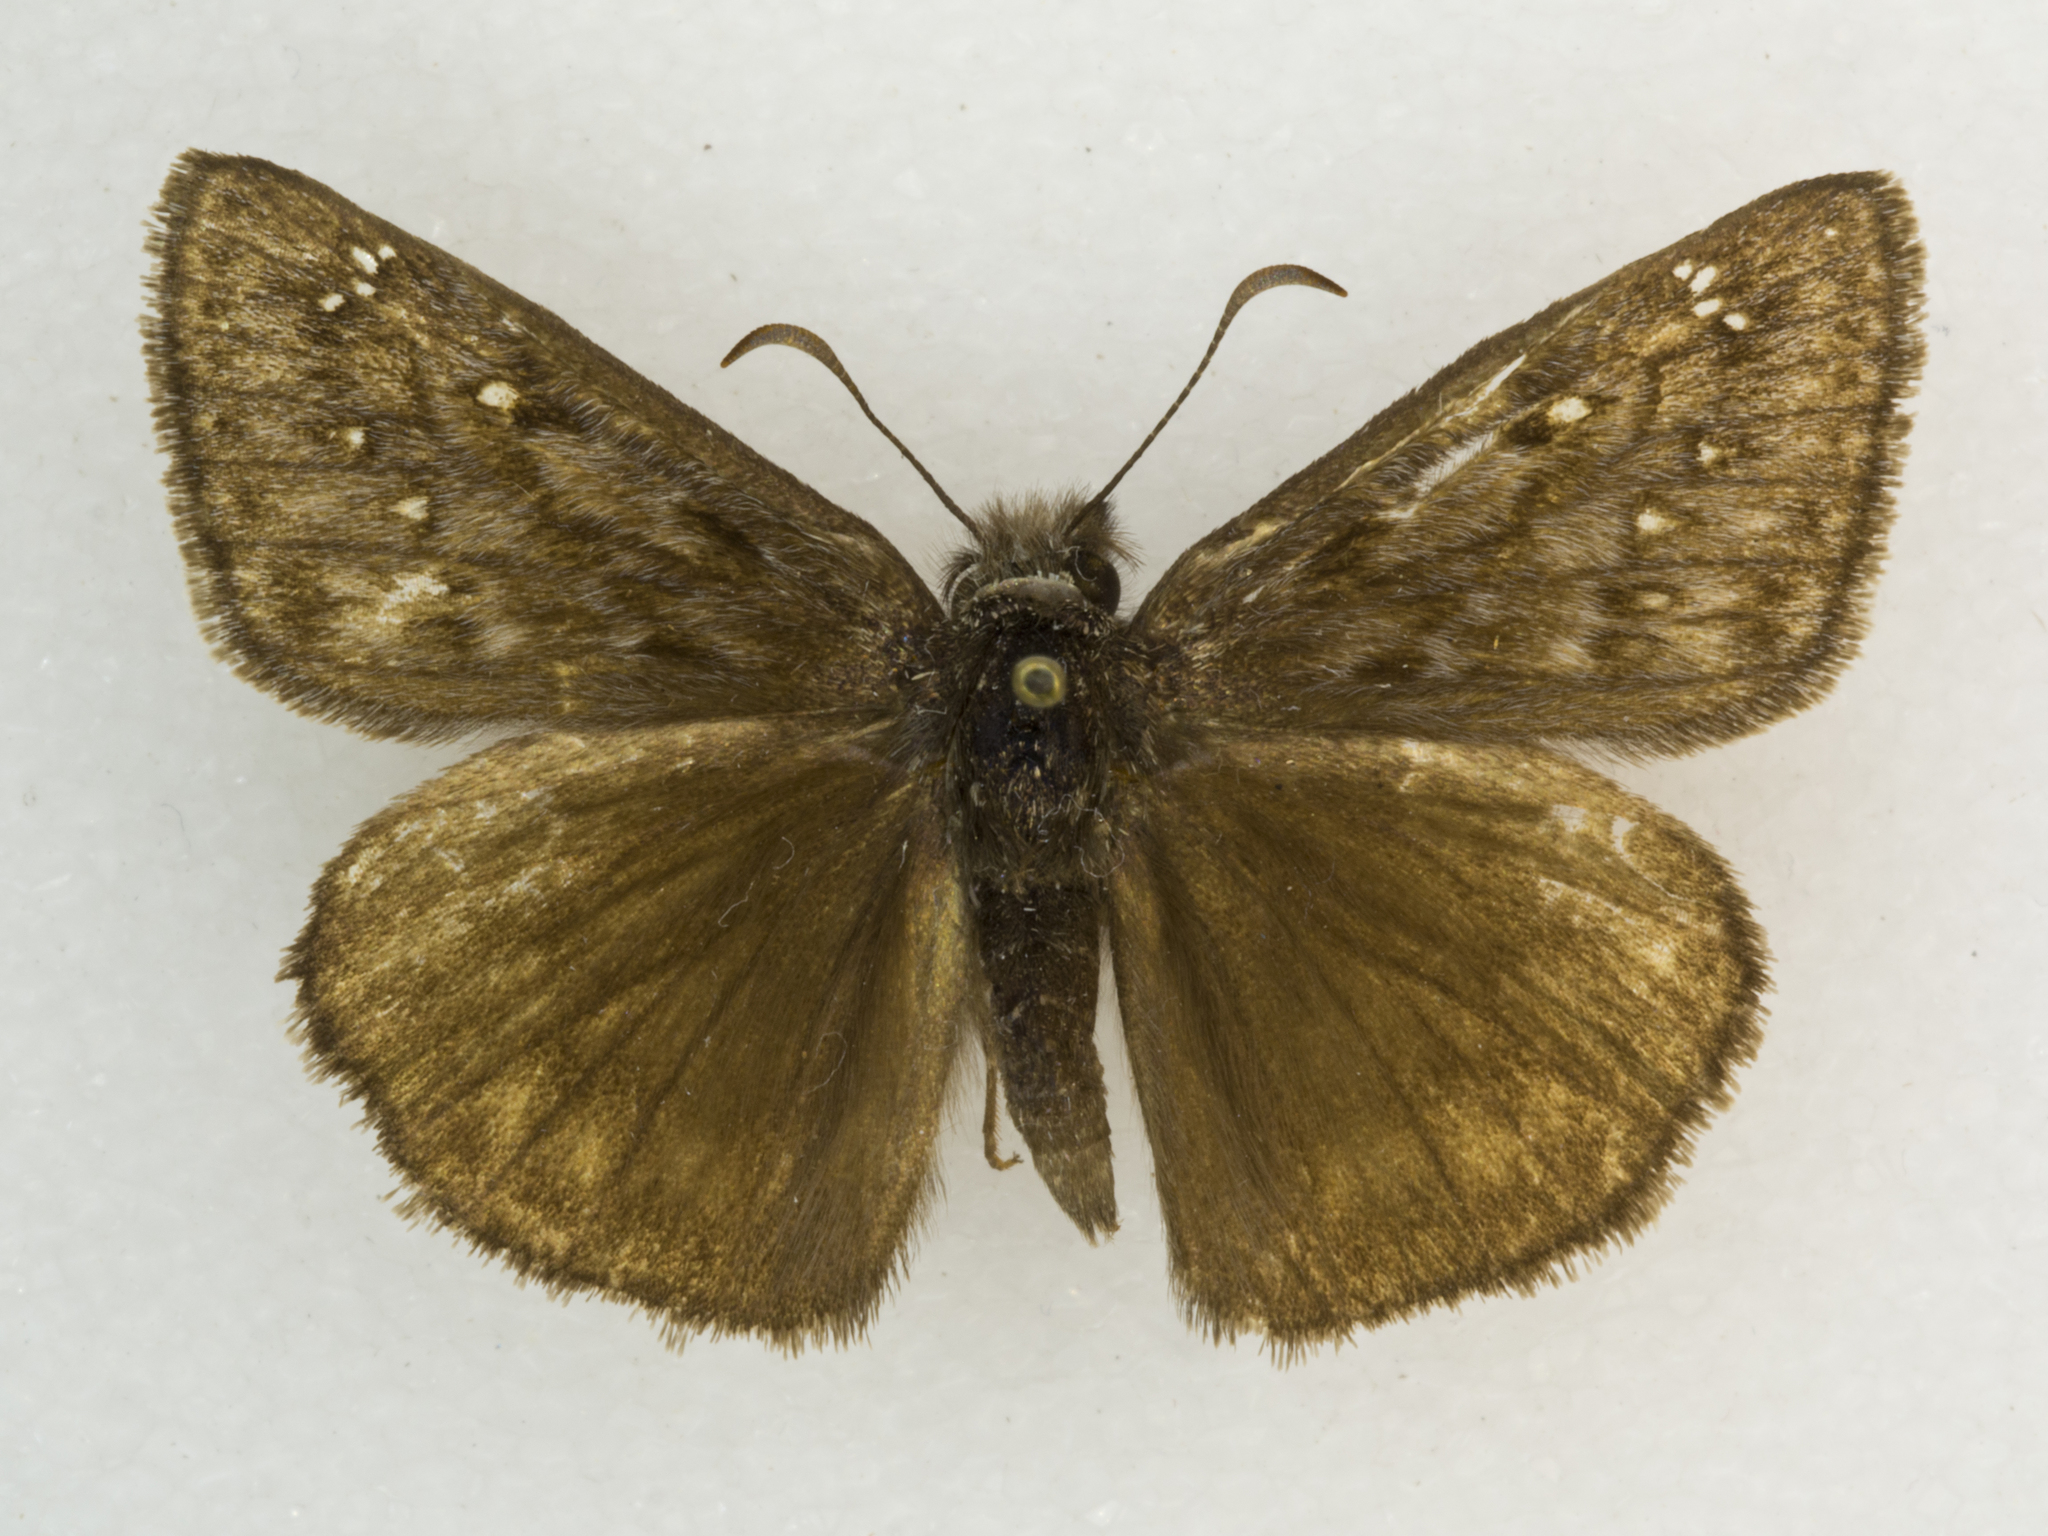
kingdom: Animalia
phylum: Arthropoda
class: Insecta
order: Lepidoptera
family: Hesperiidae
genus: Erynnis
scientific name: Erynnis meridianus
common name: Meridian duskywing
